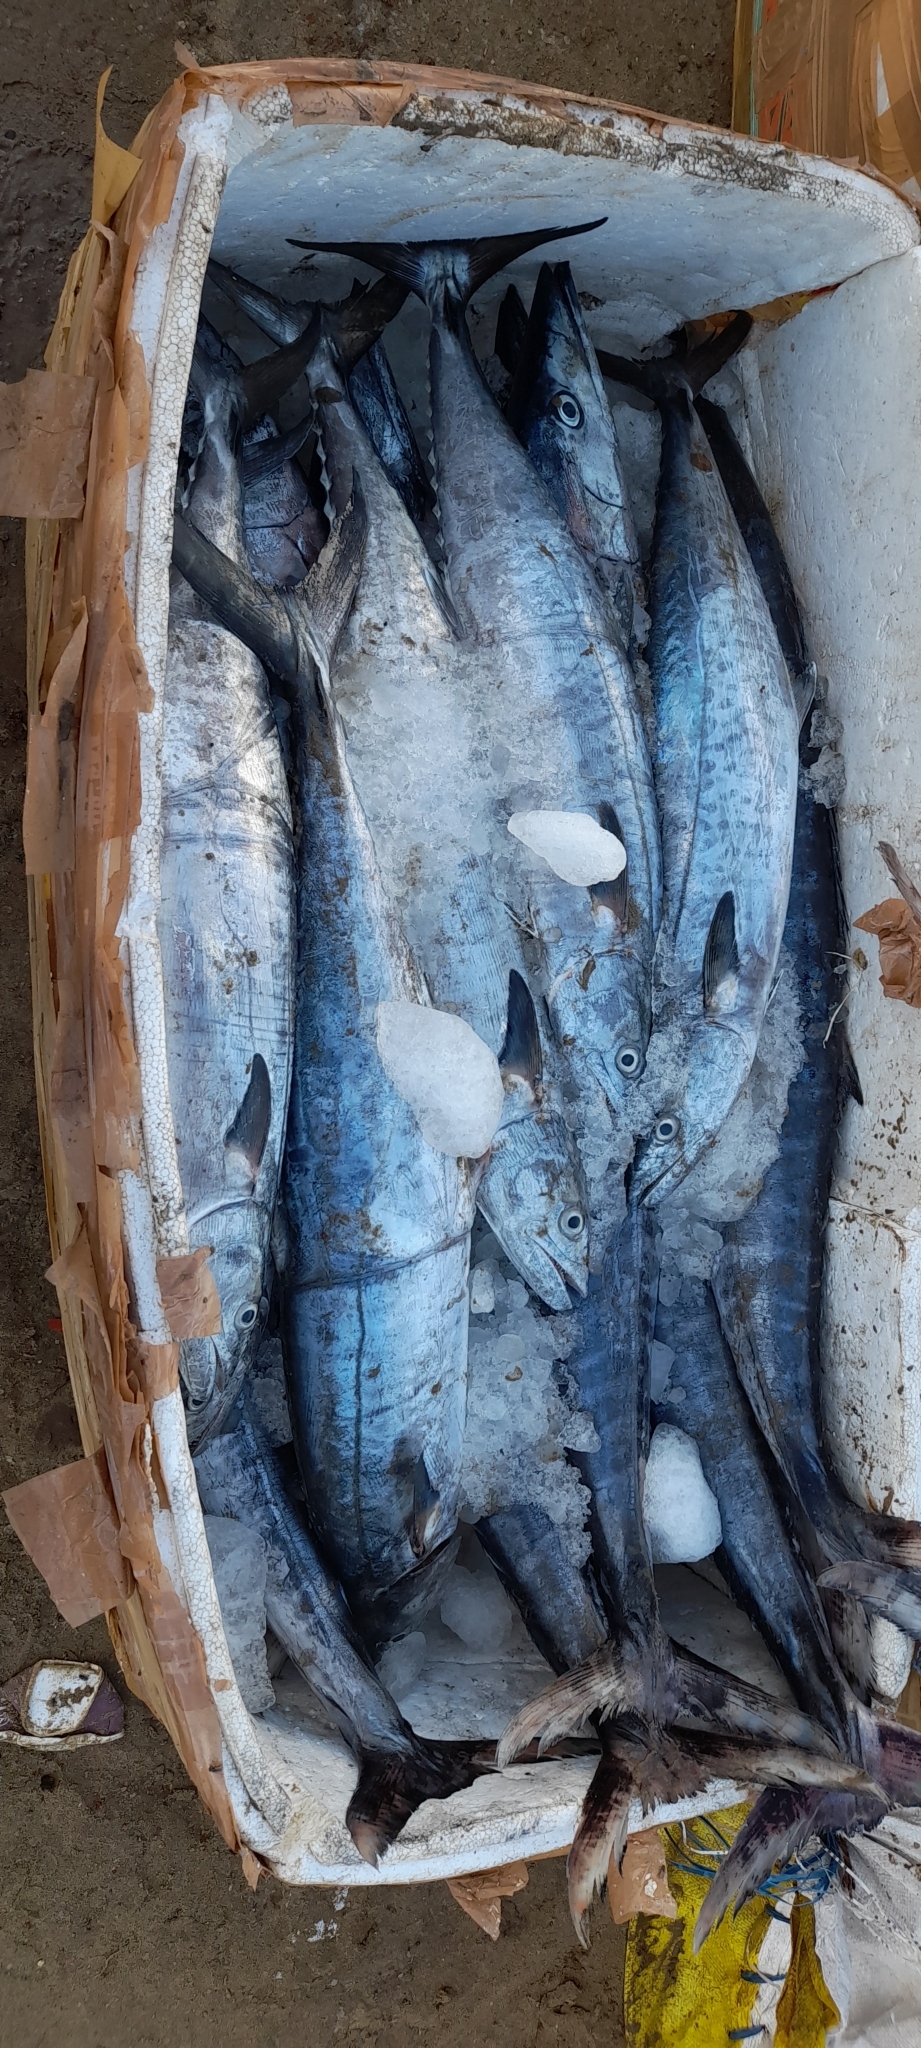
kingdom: Animalia
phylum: Chordata
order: Perciformes
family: Scombridae
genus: Acanthocybium
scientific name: Acanthocybium solandri
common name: Wahoo
